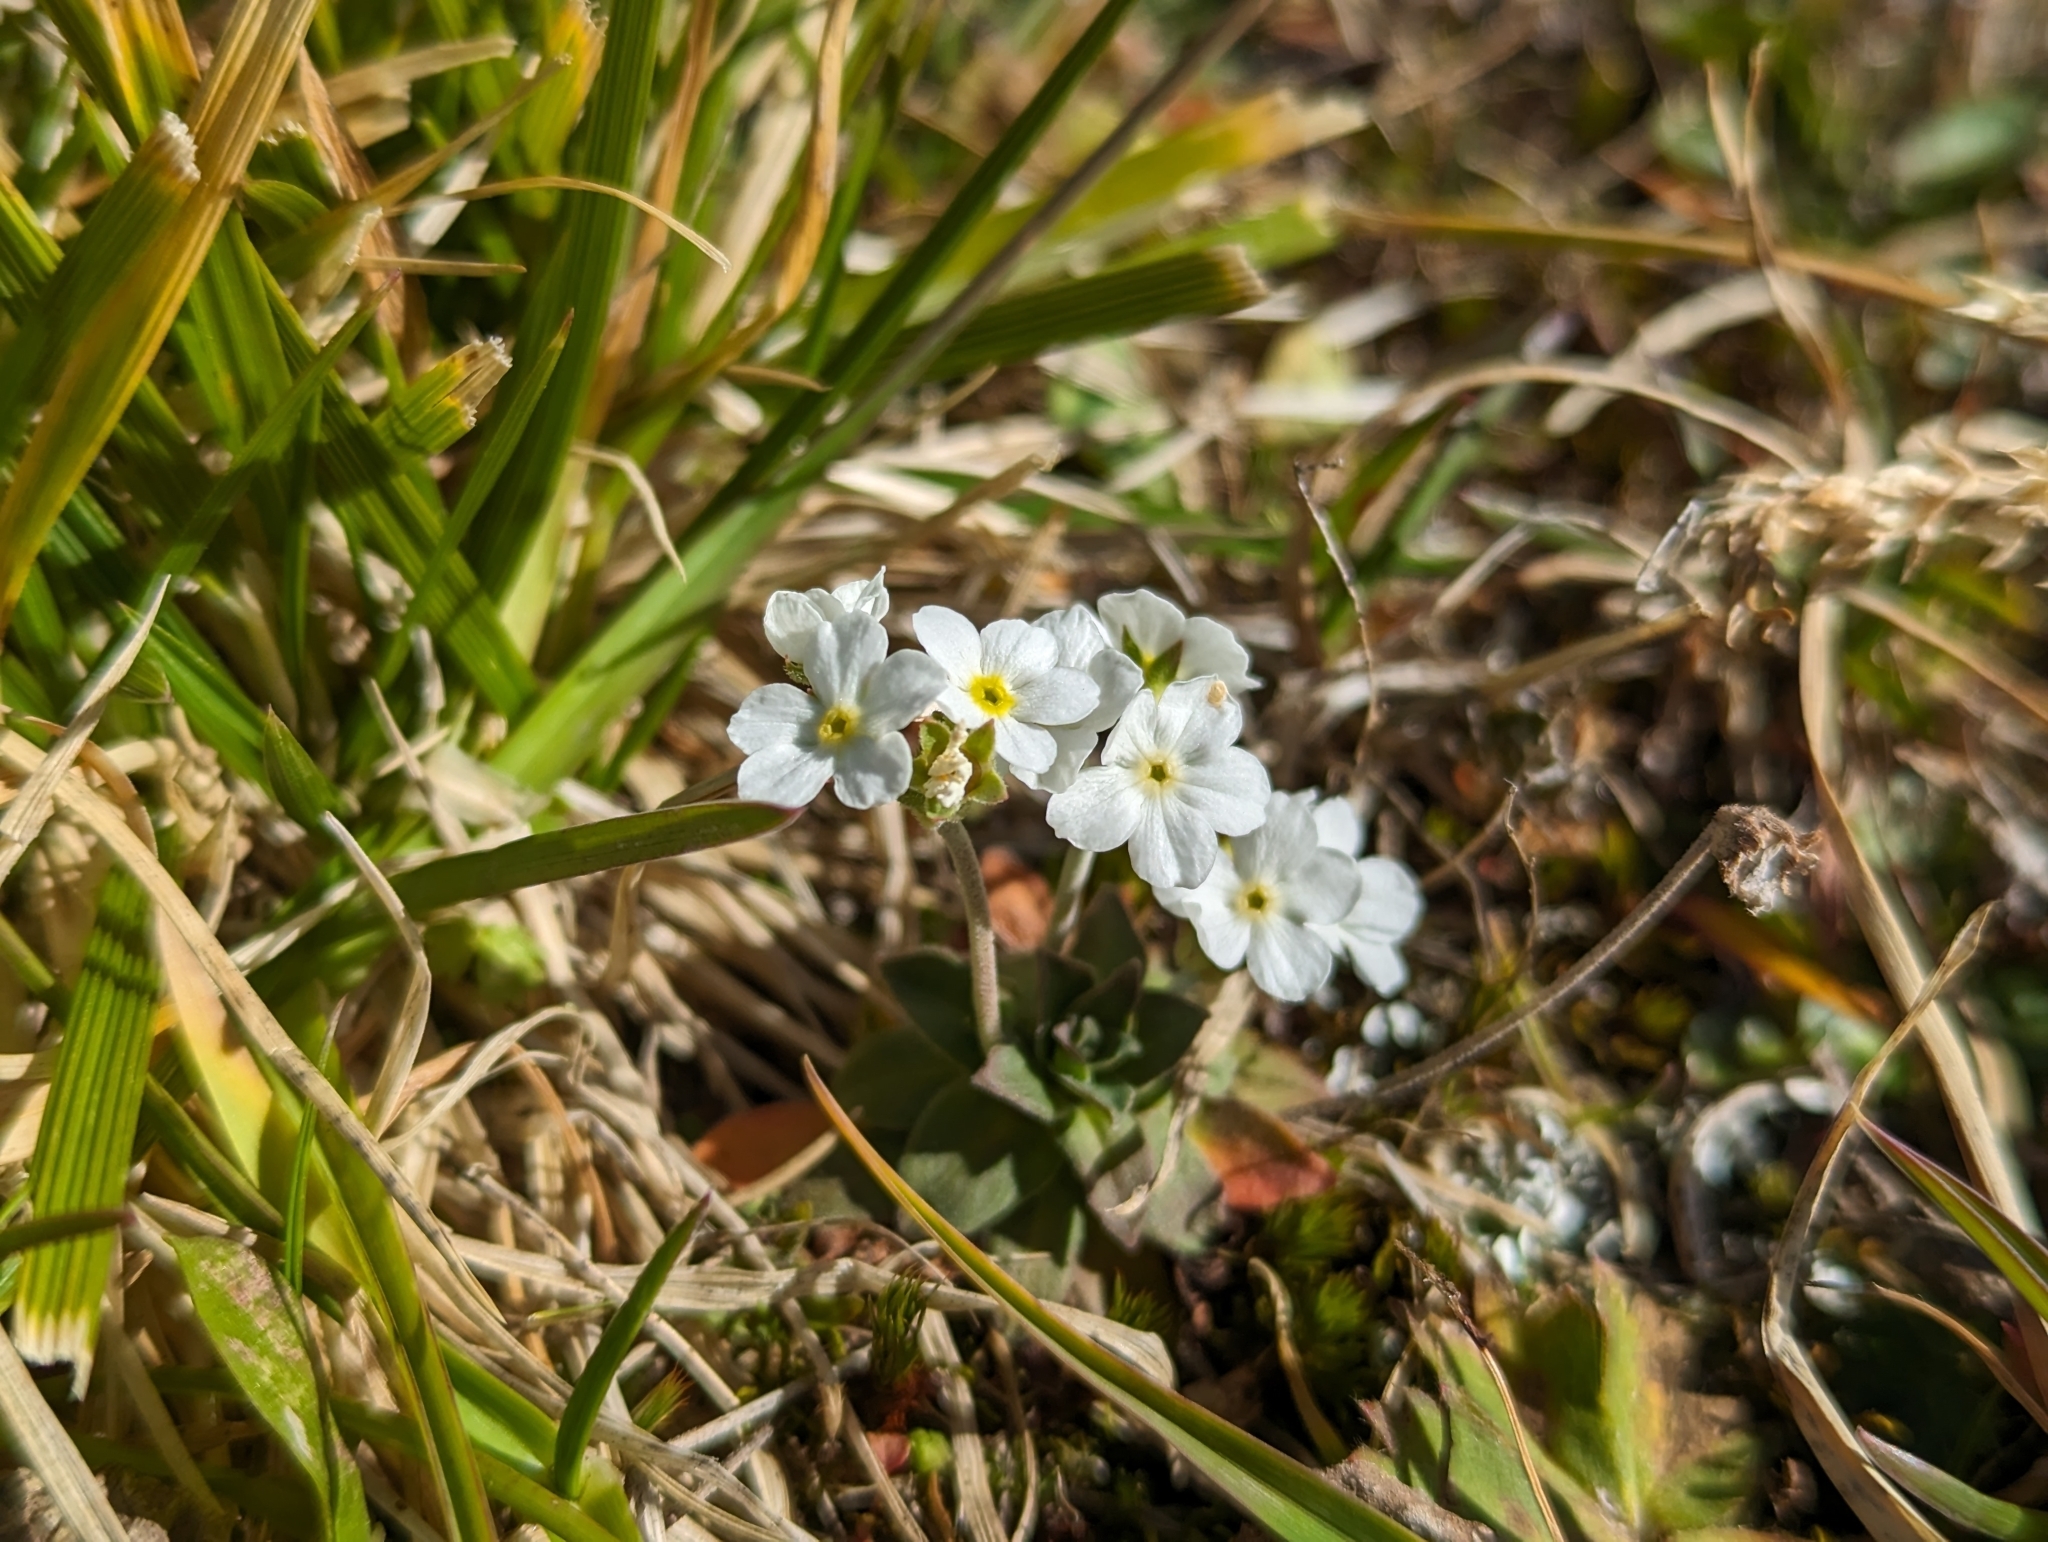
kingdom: Plantae
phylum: Tracheophyta
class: Magnoliopsida
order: Ericales
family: Primulaceae
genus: Androsace
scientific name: Androsace obtusifolia
